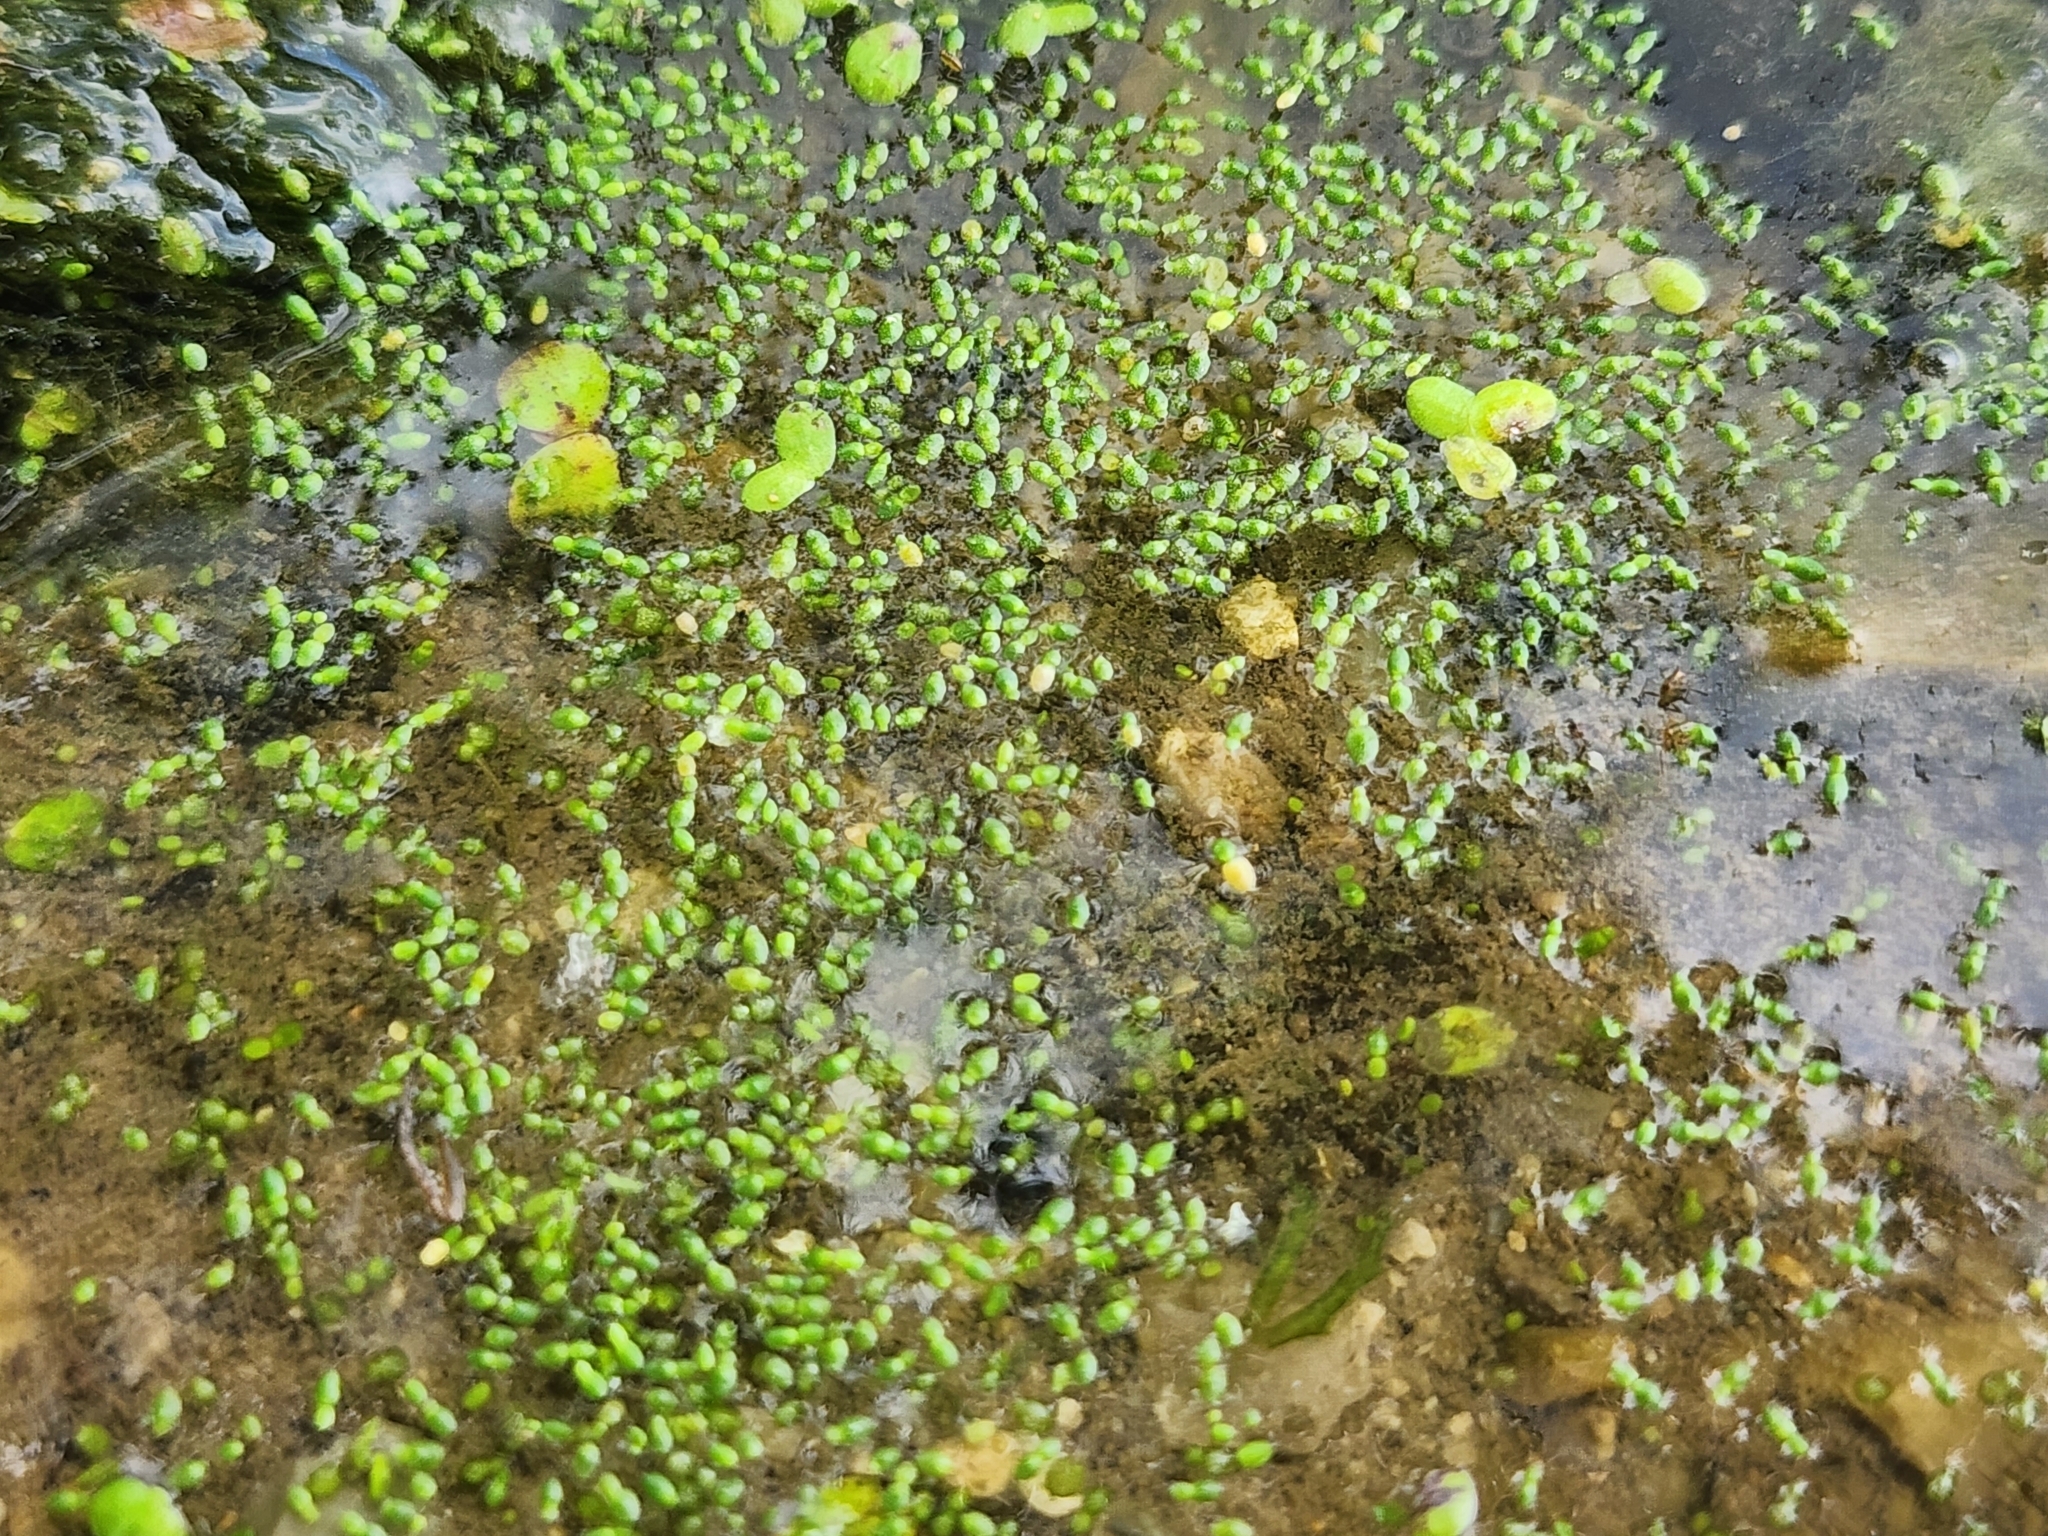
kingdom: Plantae
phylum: Tracheophyta
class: Liliopsida
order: Alismatales
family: Araceae
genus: Wolffia
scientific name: Wolffia columbiana
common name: Columbia watermeal
